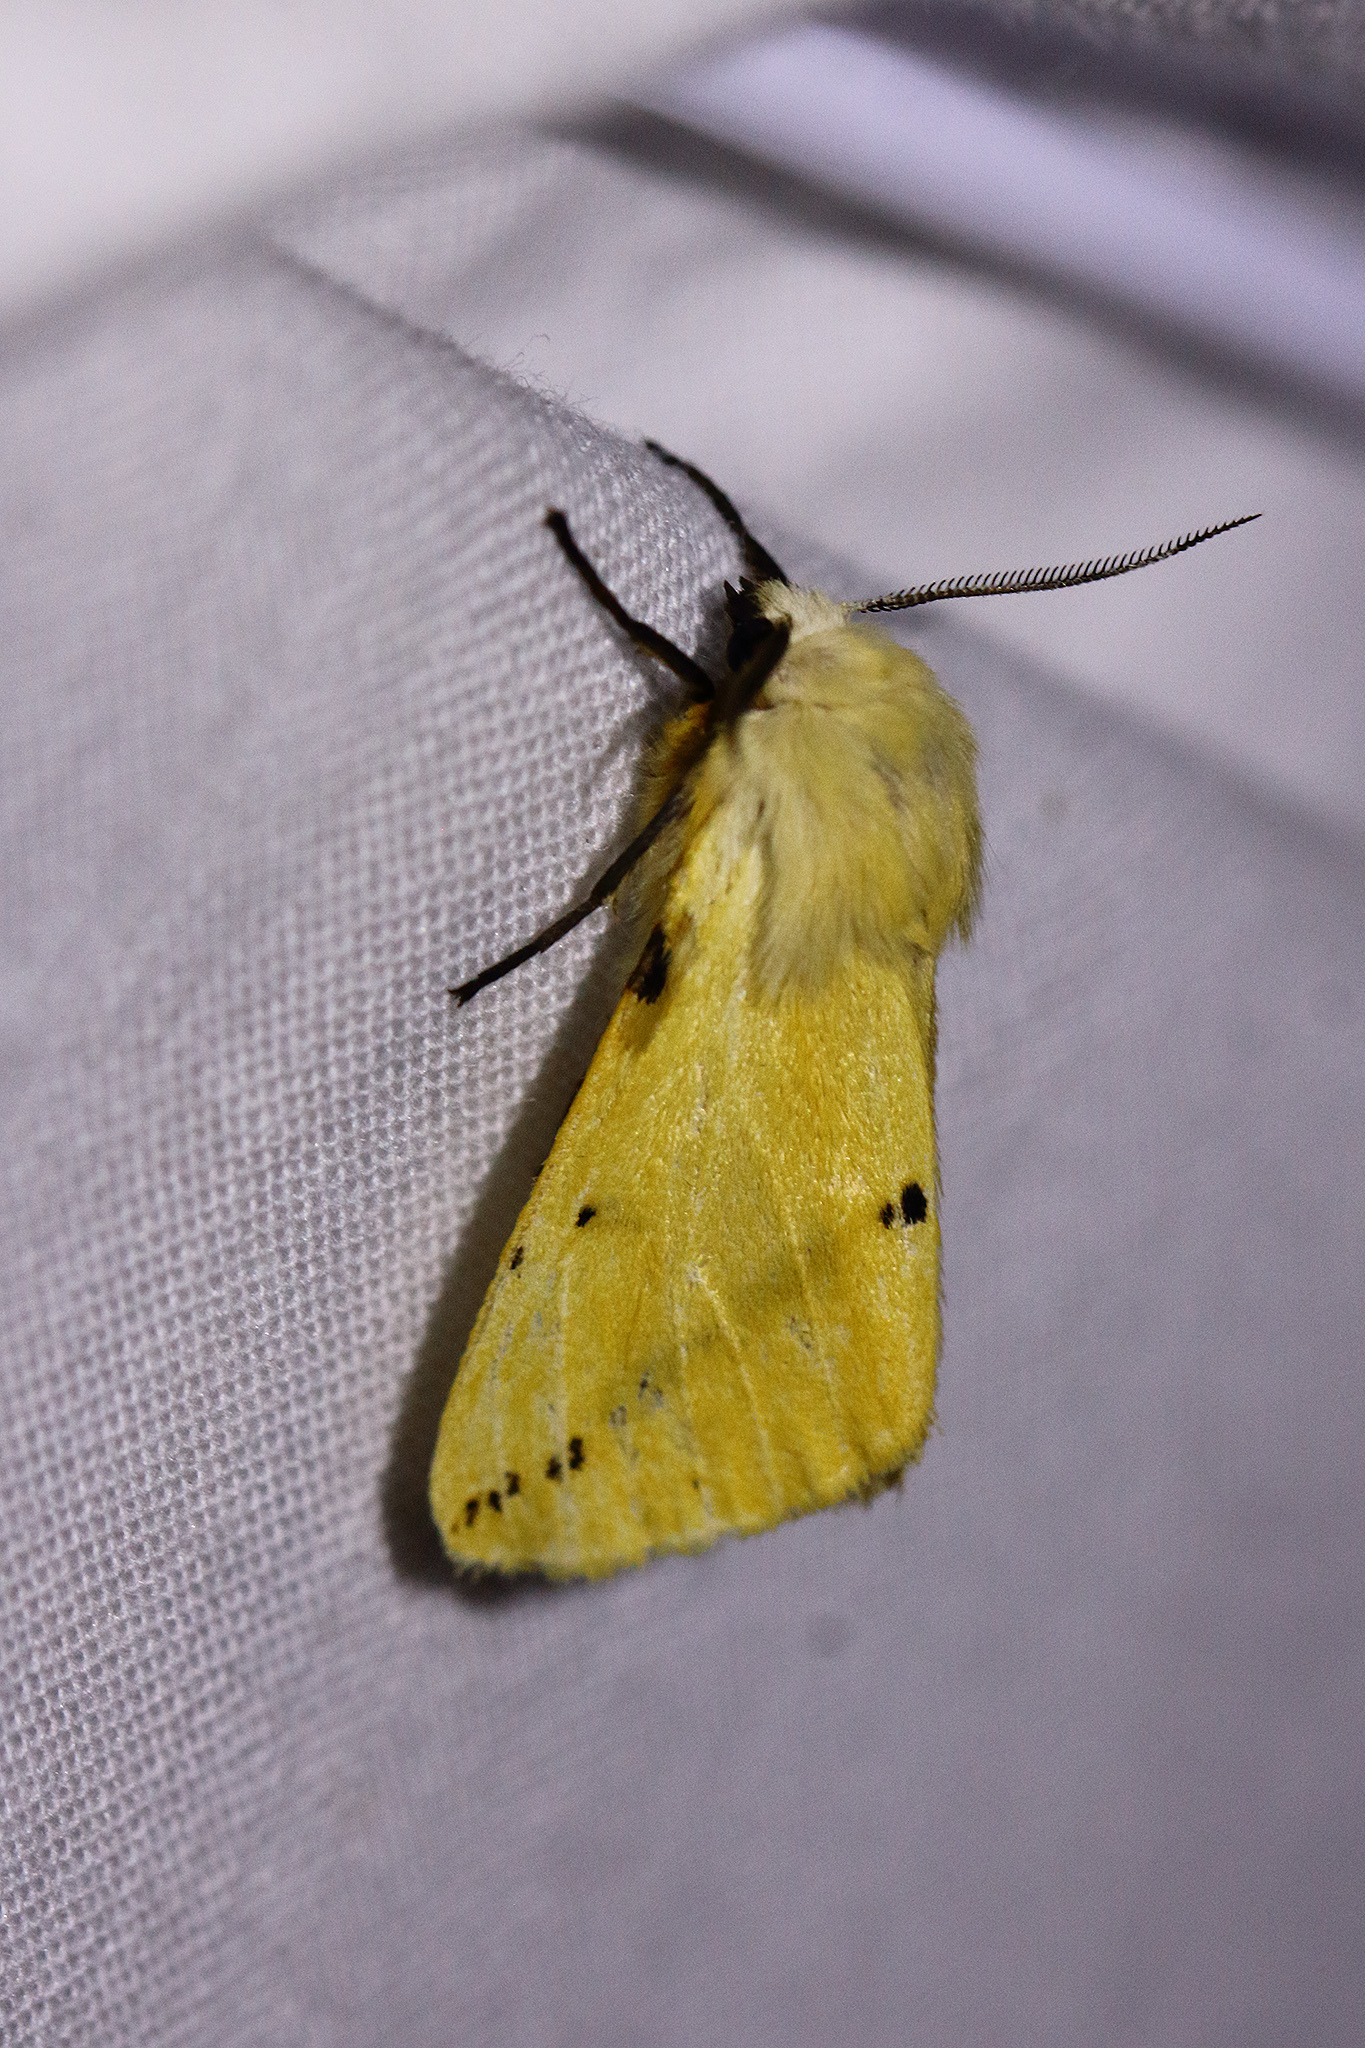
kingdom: Animalia
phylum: Arthropoda
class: Insecta
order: Lepidoptera
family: Erebidae
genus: Spilarctia
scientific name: Spilarctia lutea
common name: Buff ermine
